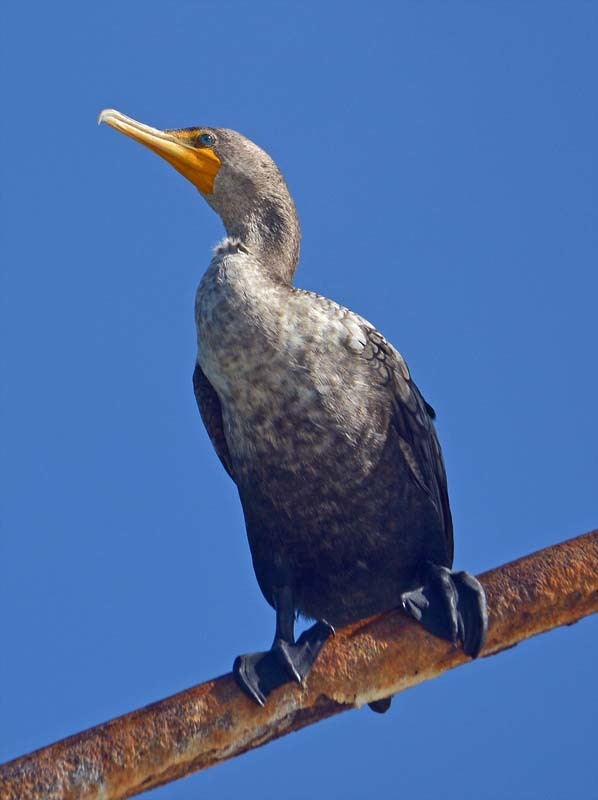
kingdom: Animalia
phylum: Chordata
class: Aves
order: Suliformes
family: Phalacrocoracidae
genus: Phalacrocorax
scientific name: Phalacrocorax auritus
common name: Double-crested cormorant
